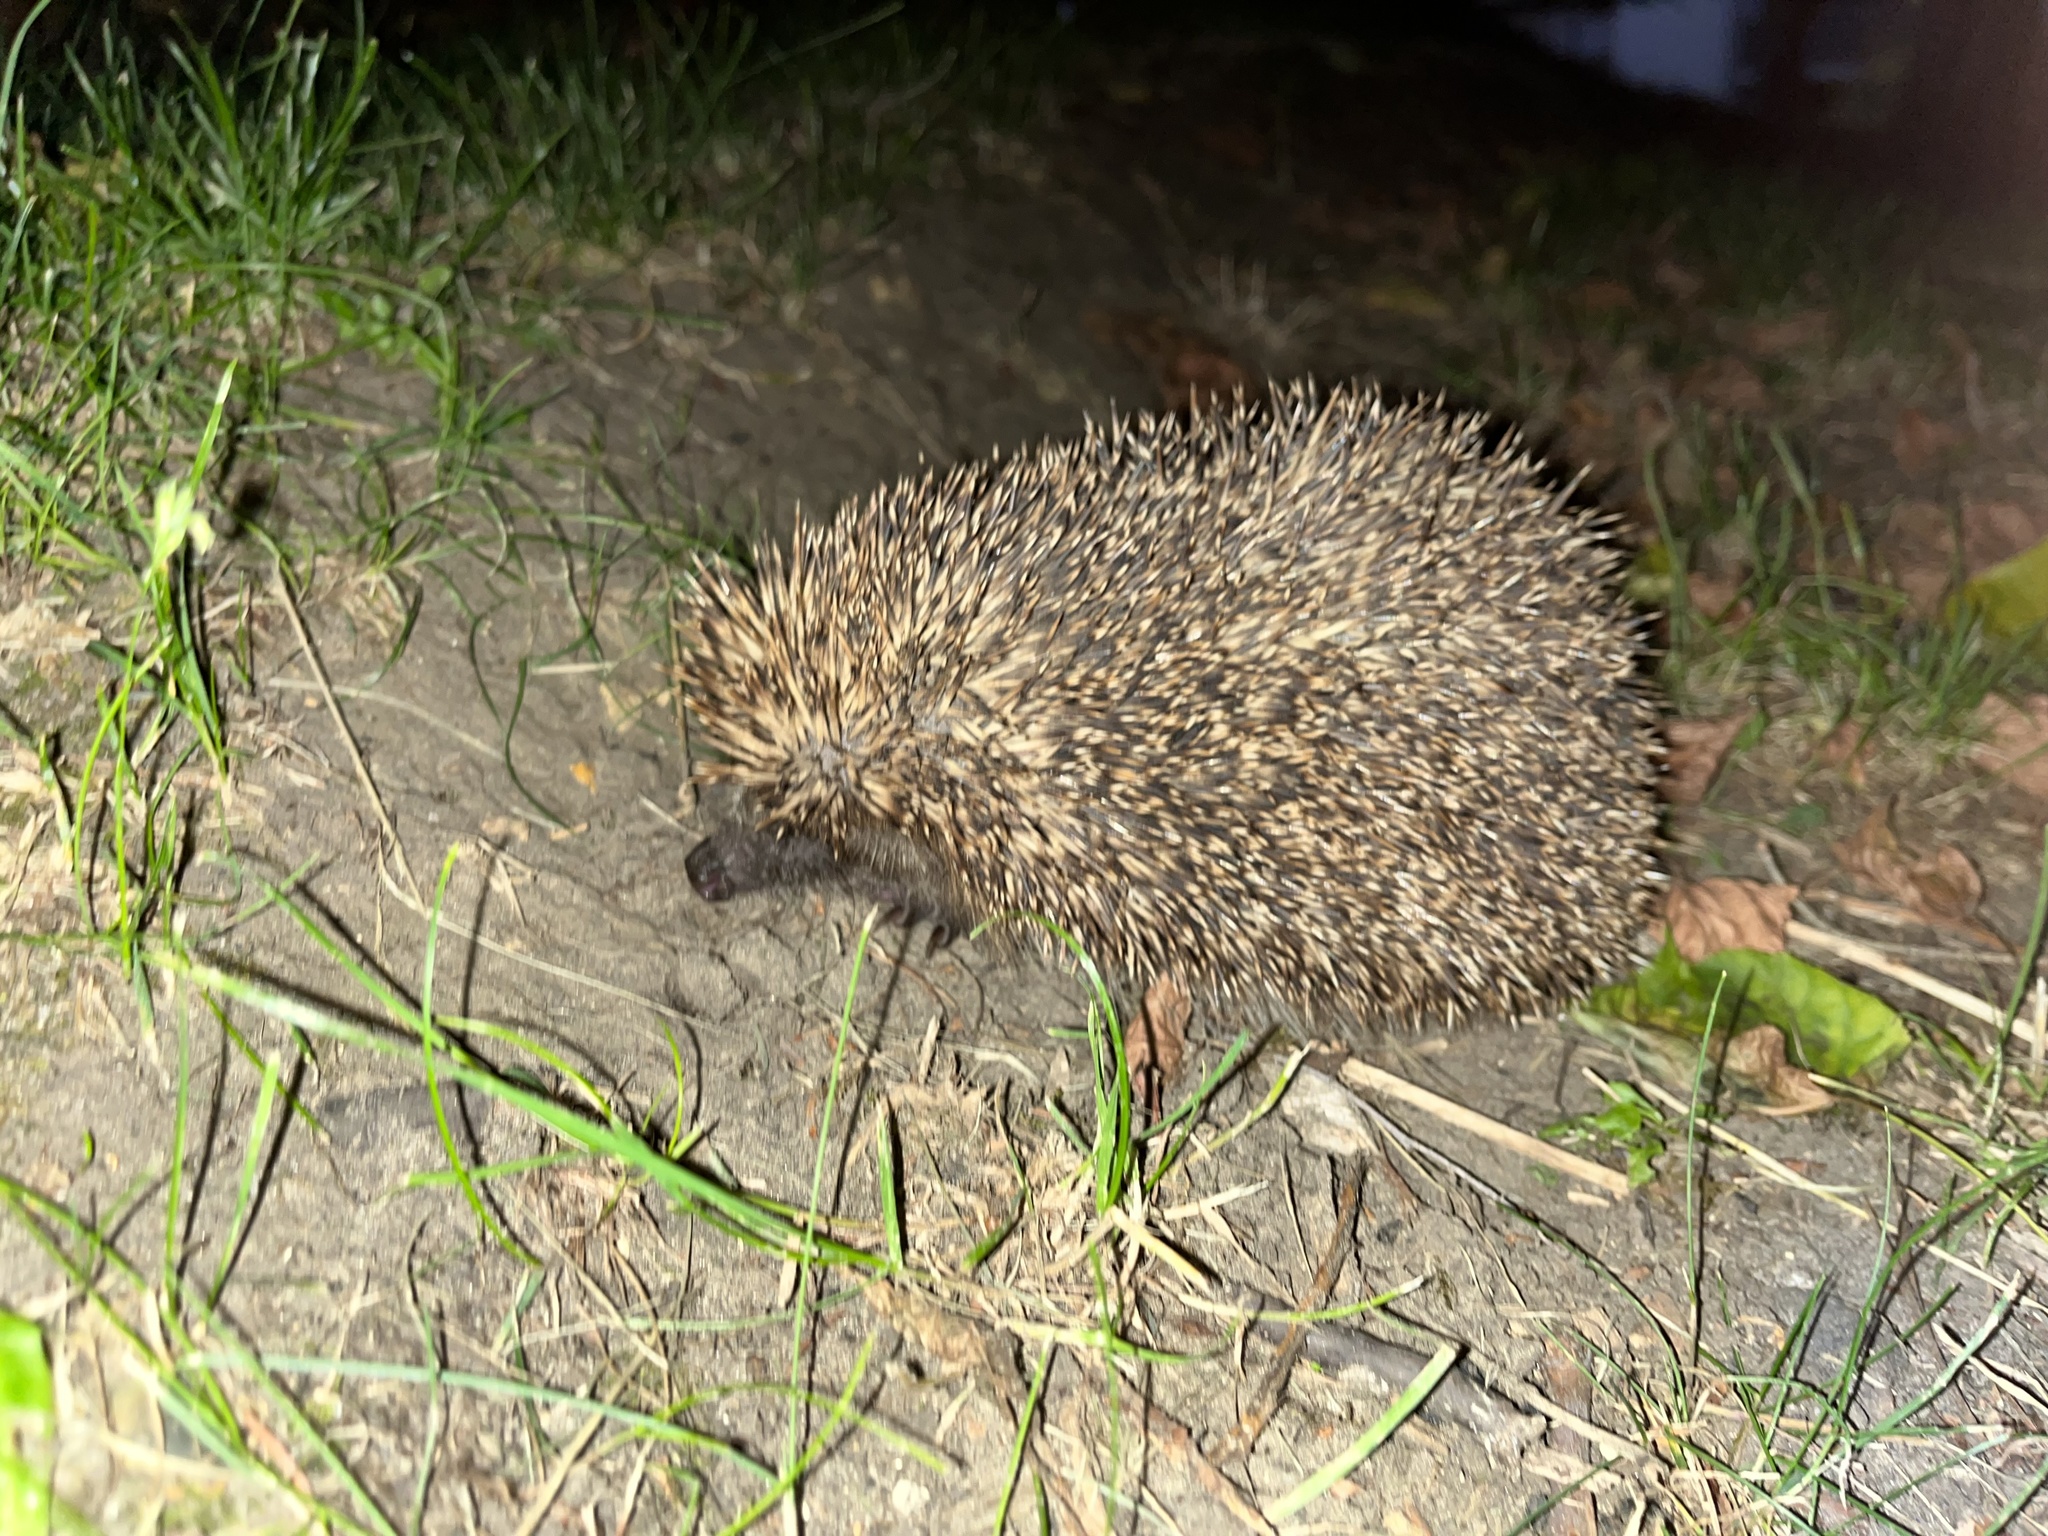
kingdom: Animalia
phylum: Chordata
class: Mammalia
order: Erinaceomorpha
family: Erinaceidae
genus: Erinaceus
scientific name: Erinaceus europaeus
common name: West european hedgehog
